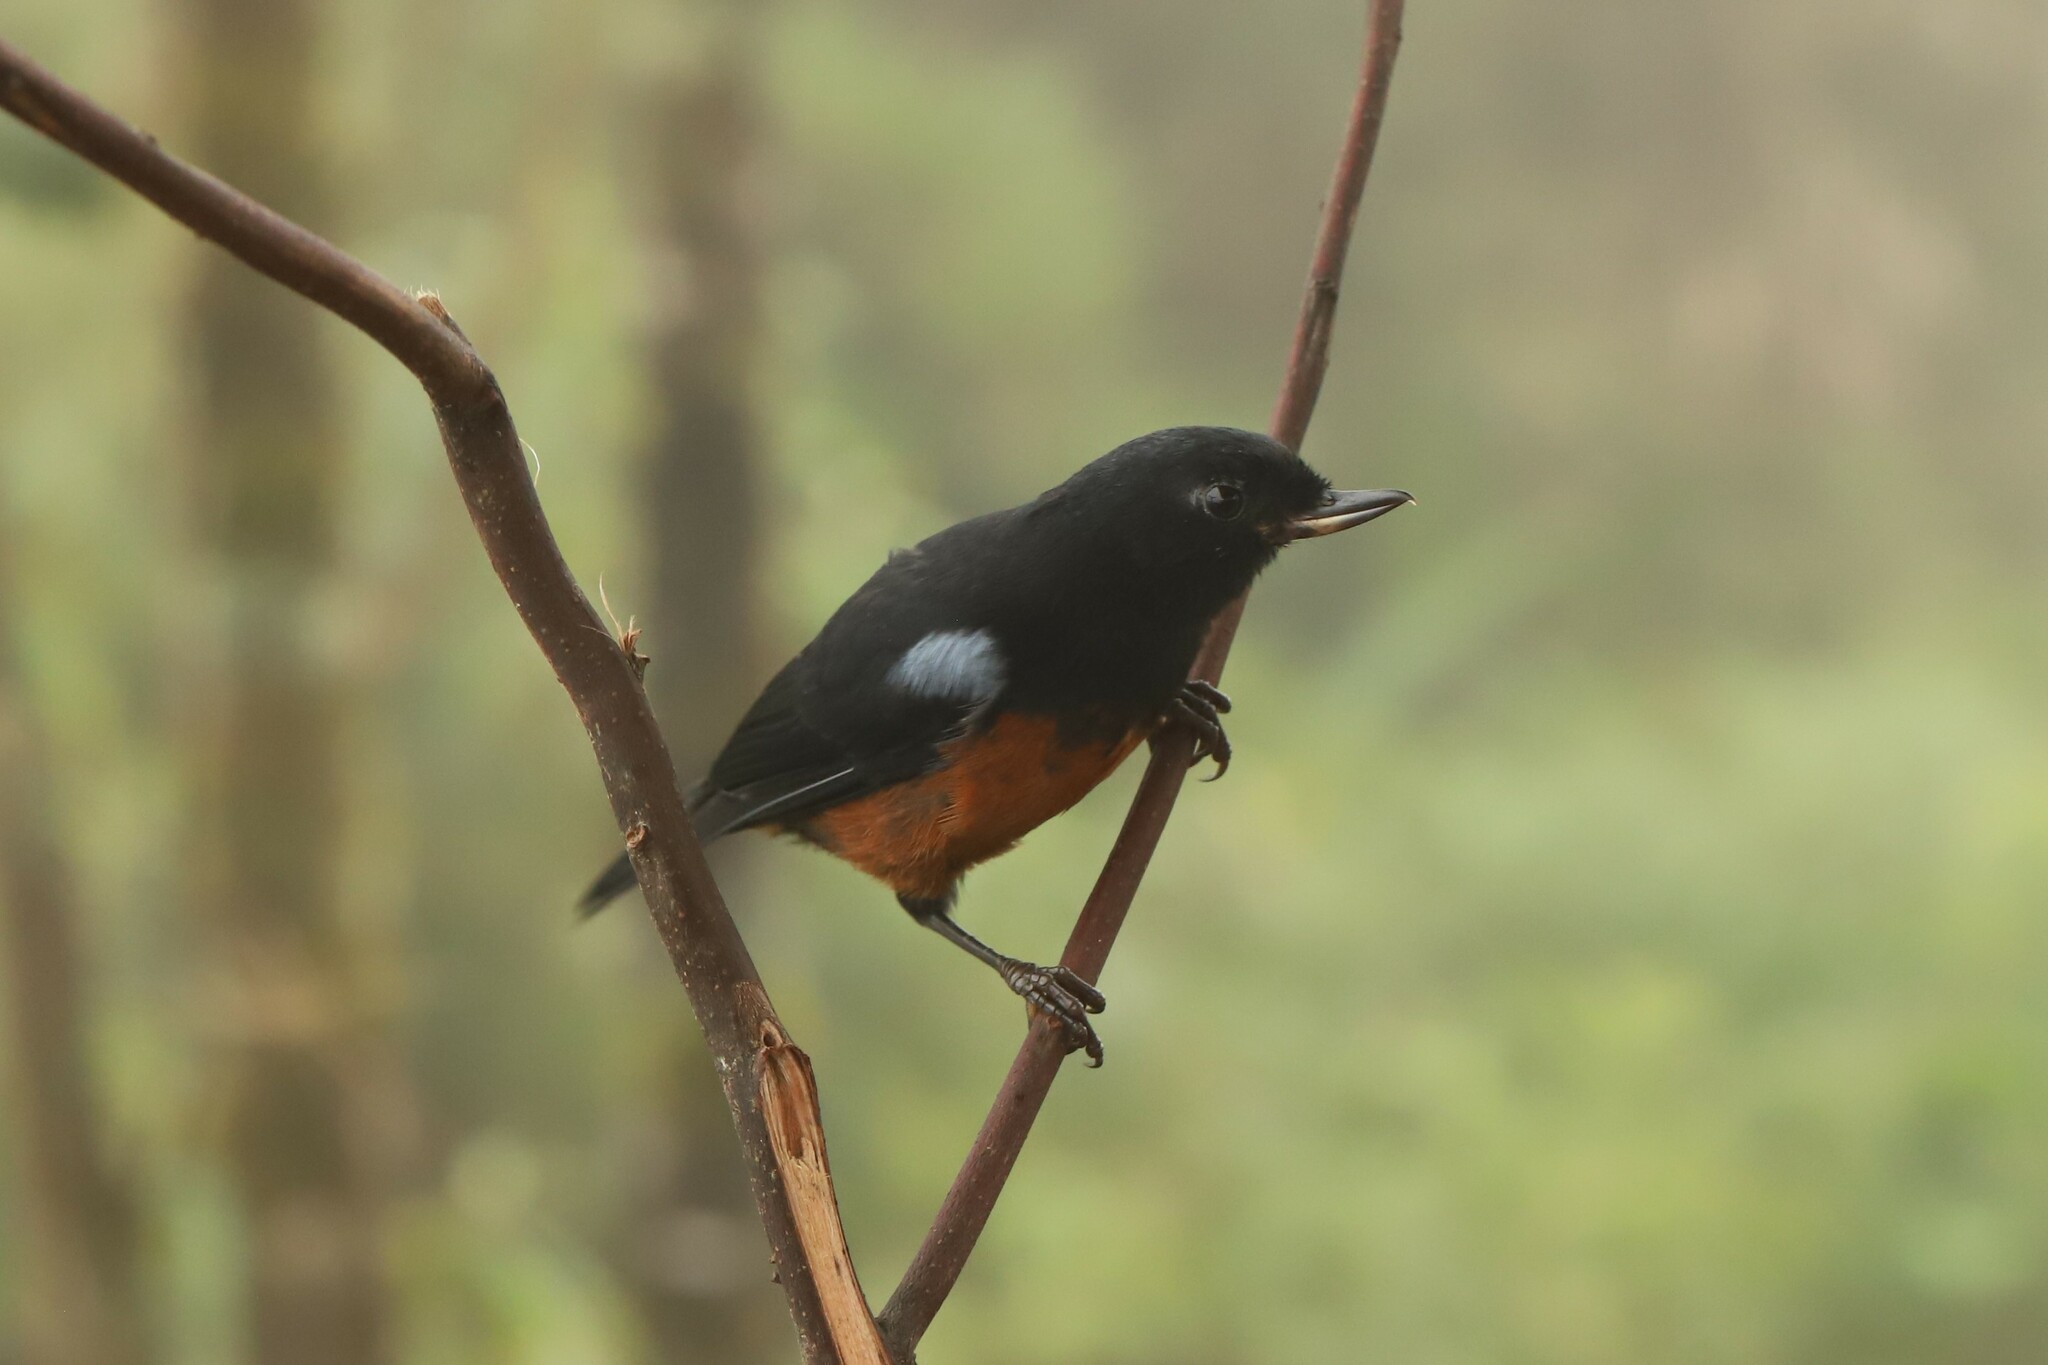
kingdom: Animalia
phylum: Chordata
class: Aves
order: Passeriformes
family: Thraupidae
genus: Diglossa
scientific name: Diglossa gloriosissima
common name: Chestnut-bellied flowerpiercer
